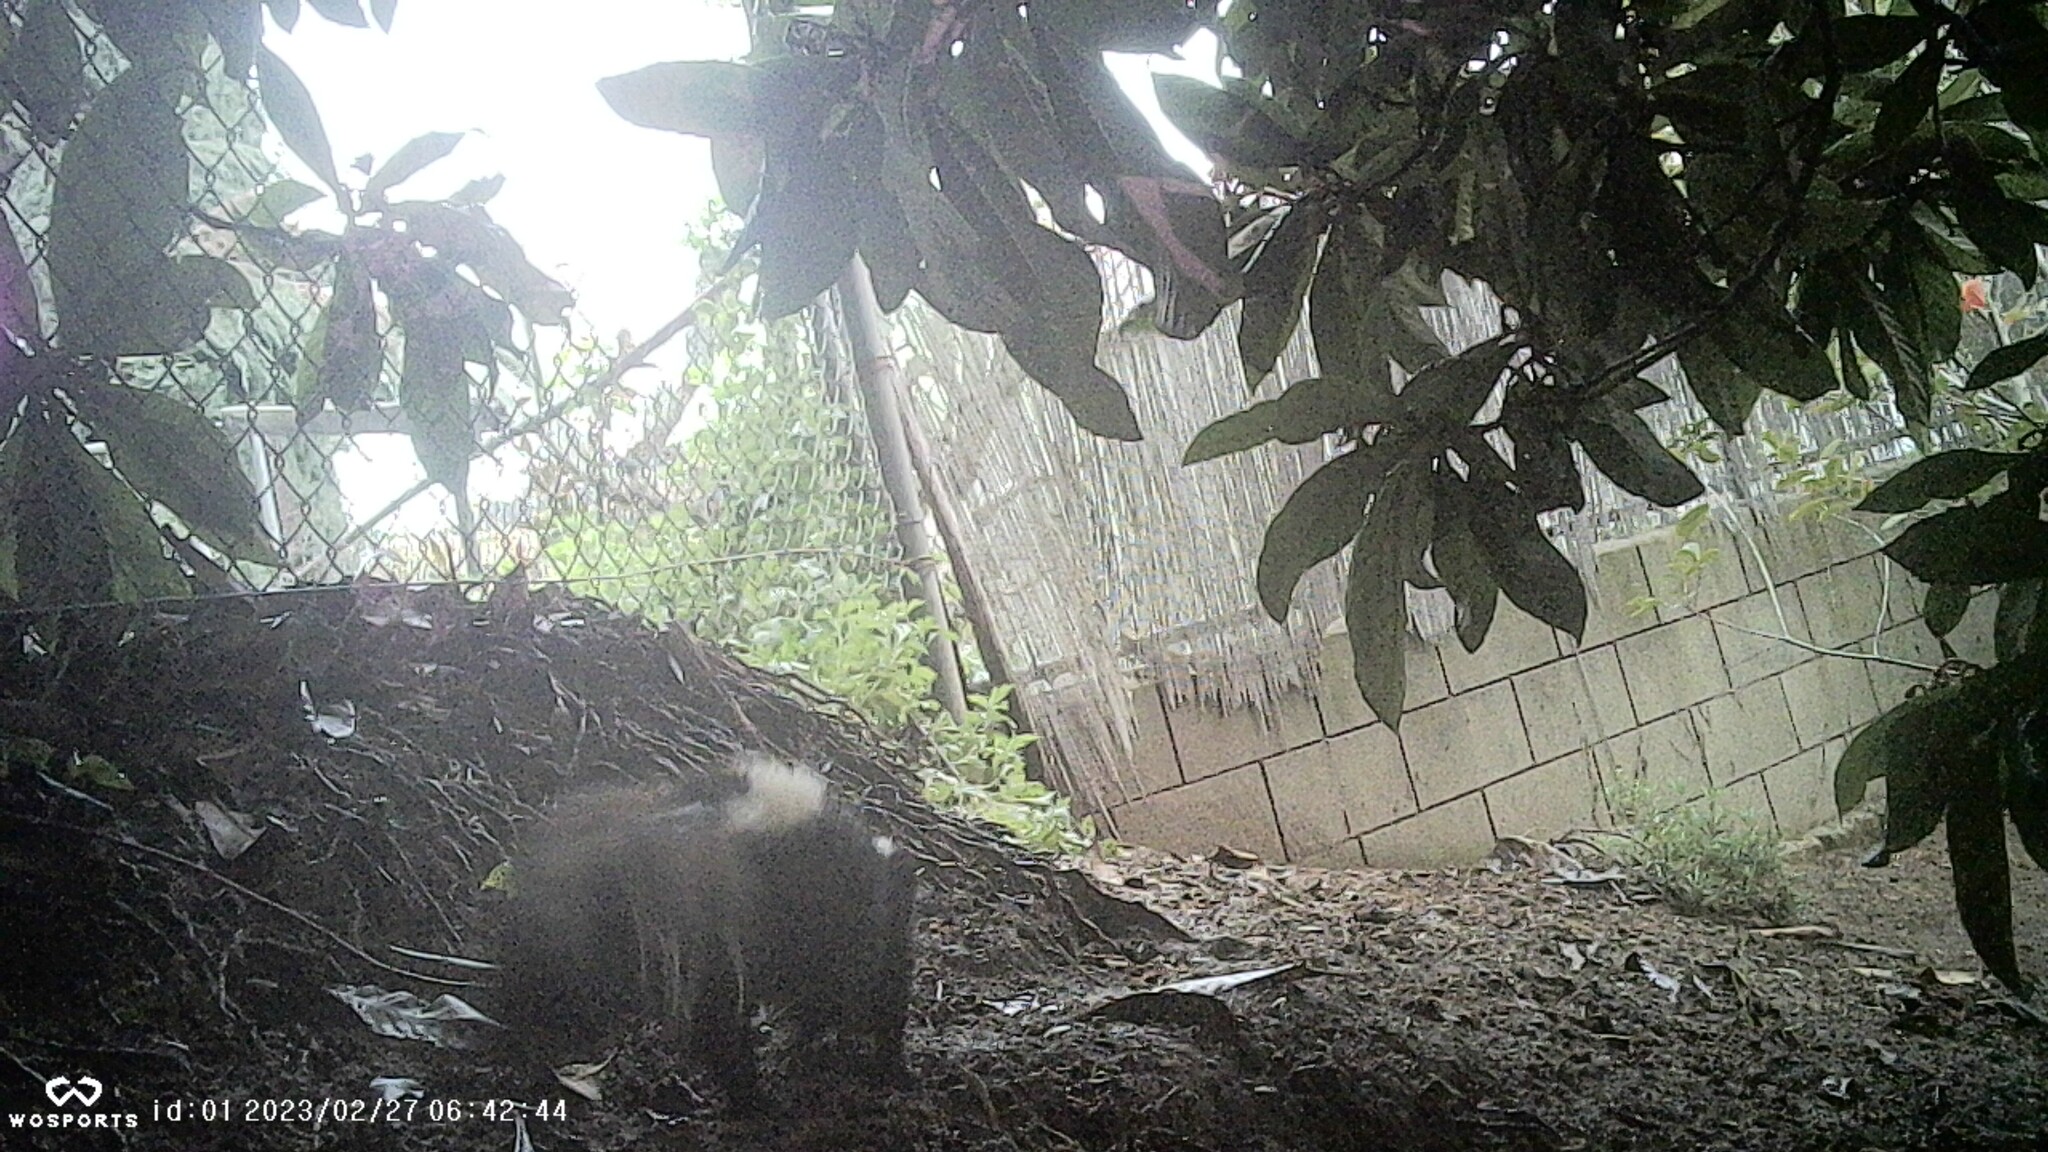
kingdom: Animalia
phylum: Chordata
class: Mammalia
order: Carnivora
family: Mephitidae
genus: Mephitis
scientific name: Mephitis mephitis
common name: Striped skunk
